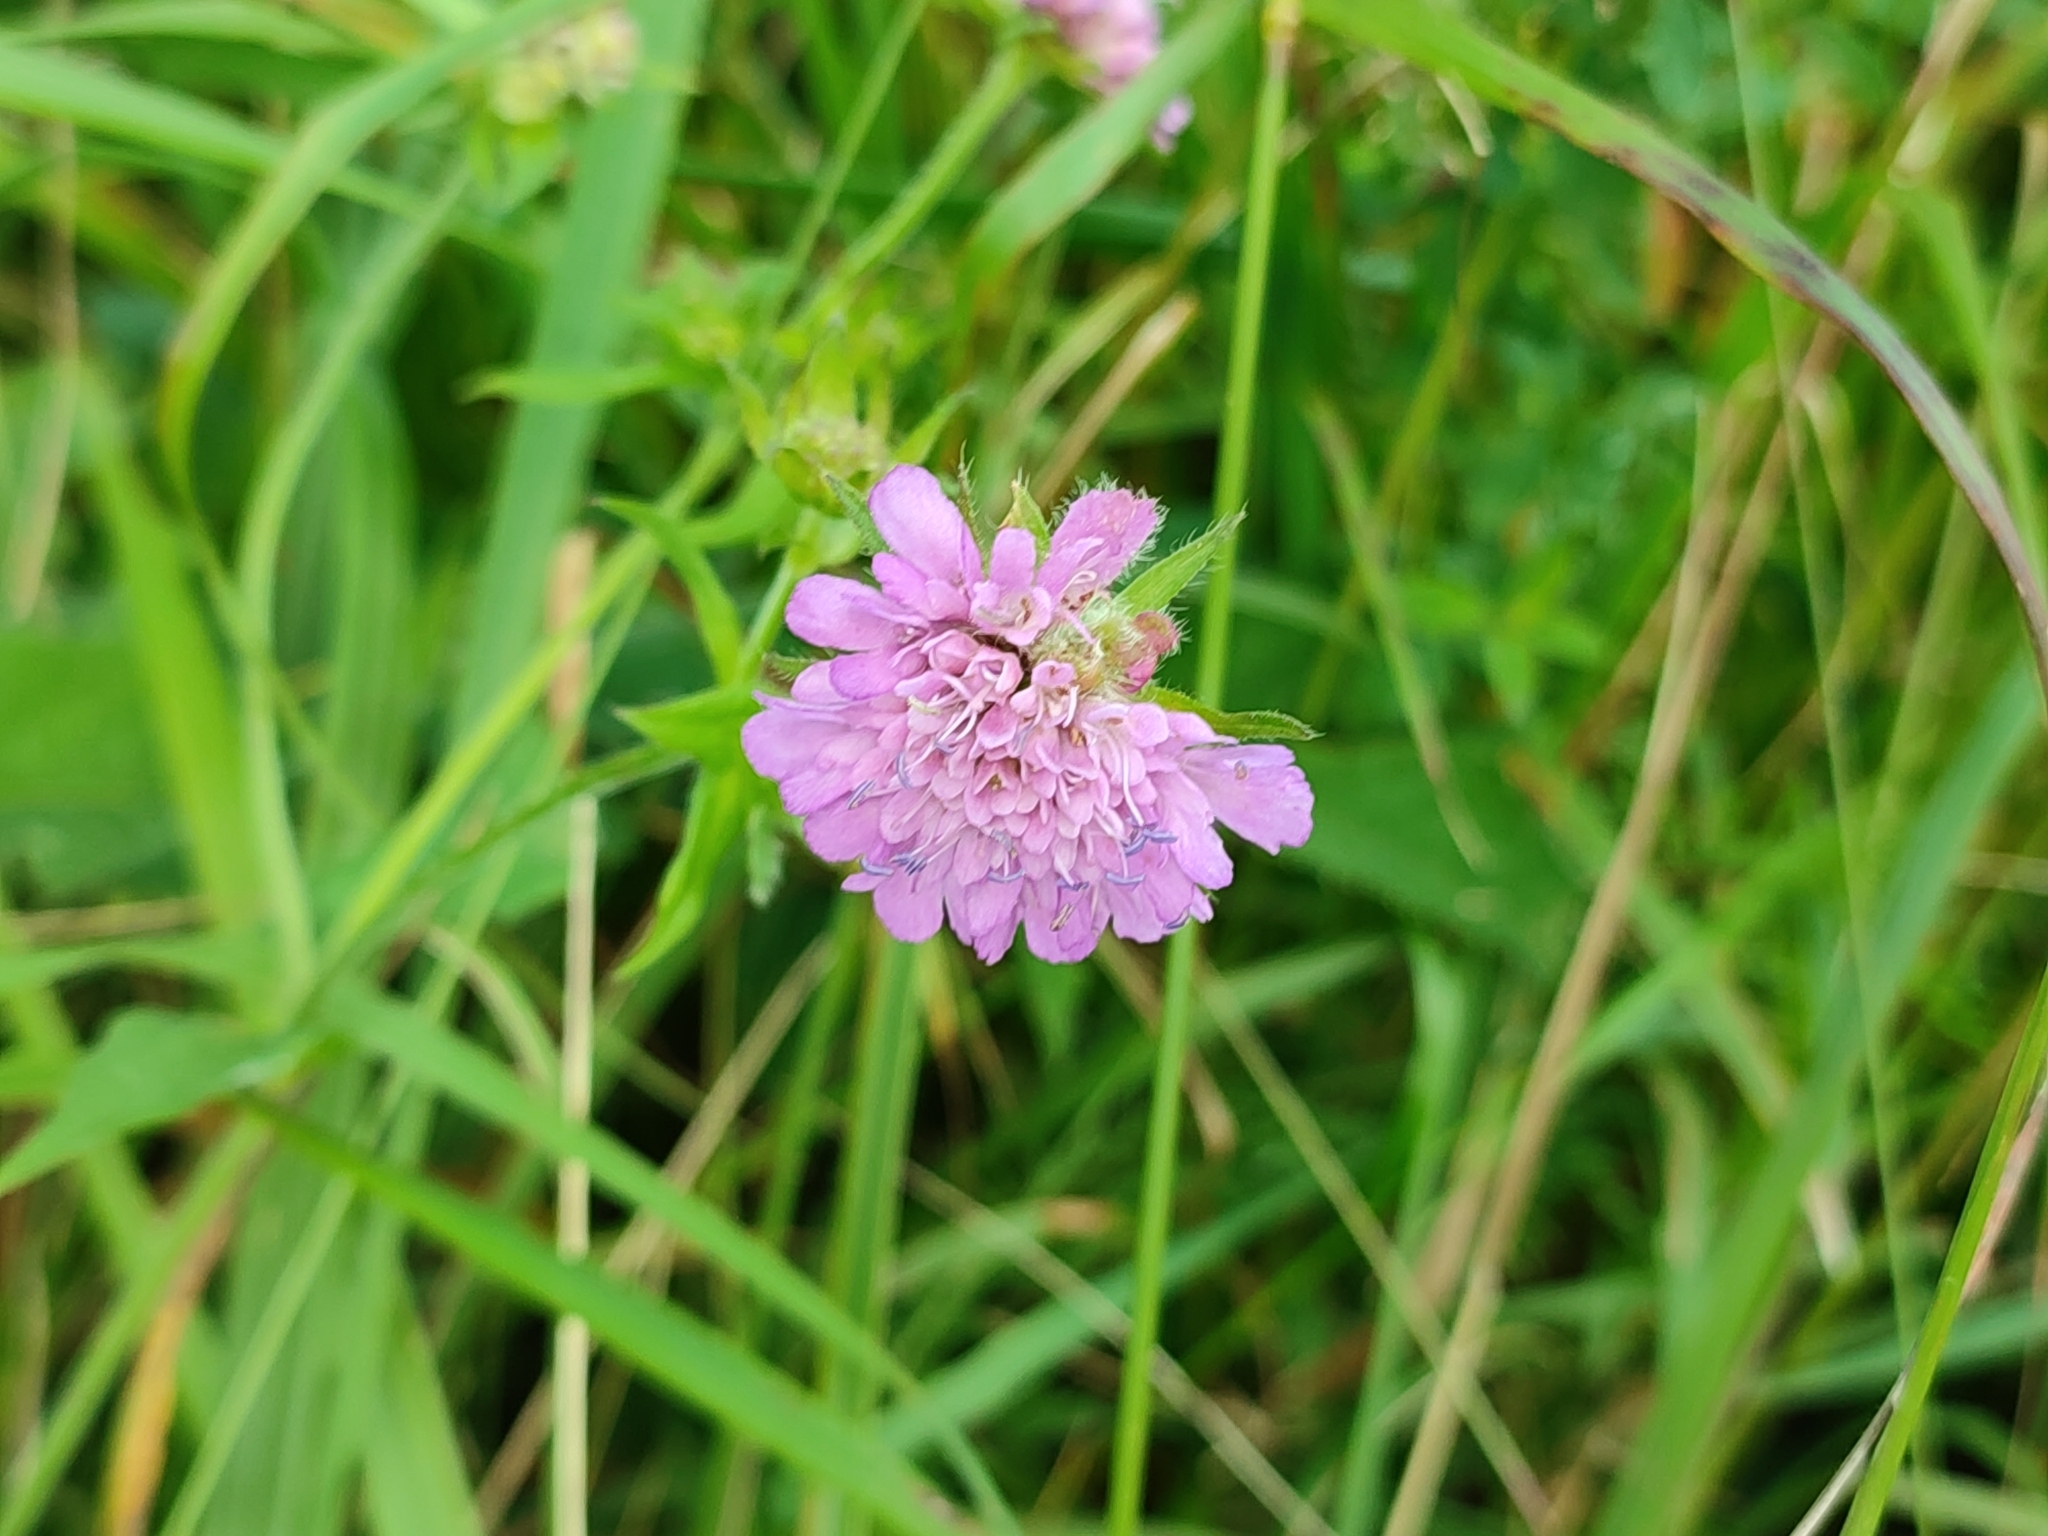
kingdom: Plantae
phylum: Tracheophyta
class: Magnoliopsida
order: Dipsacales
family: Caprifoliaceae
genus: Knautia
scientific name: Knautia drymeia
